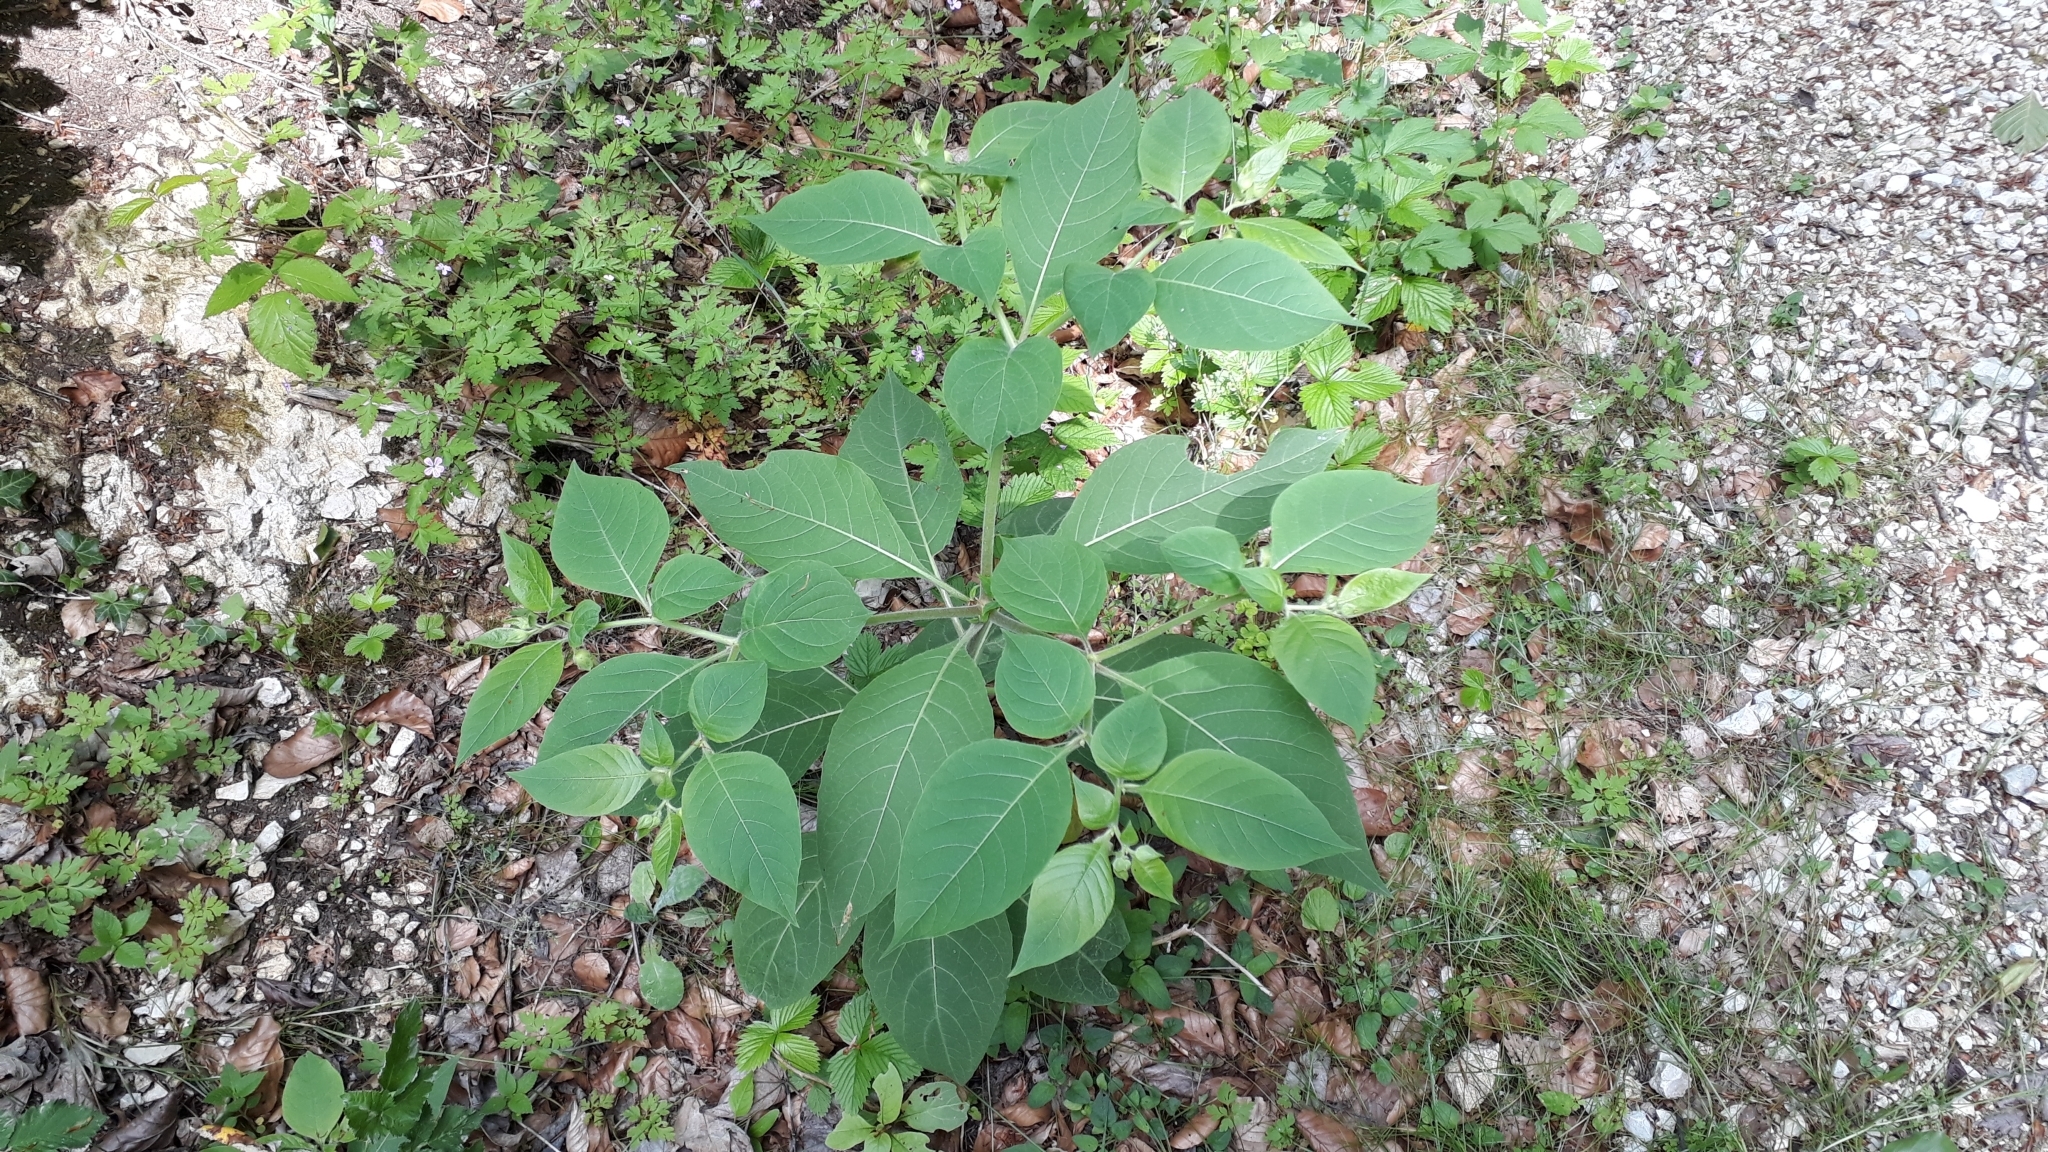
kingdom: Plantae
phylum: Tracheophyta
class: Magnoliopsida
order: Solanales
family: Solanaceae
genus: Atropa
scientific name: Atropa belladonna
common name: Deadly nightshade
